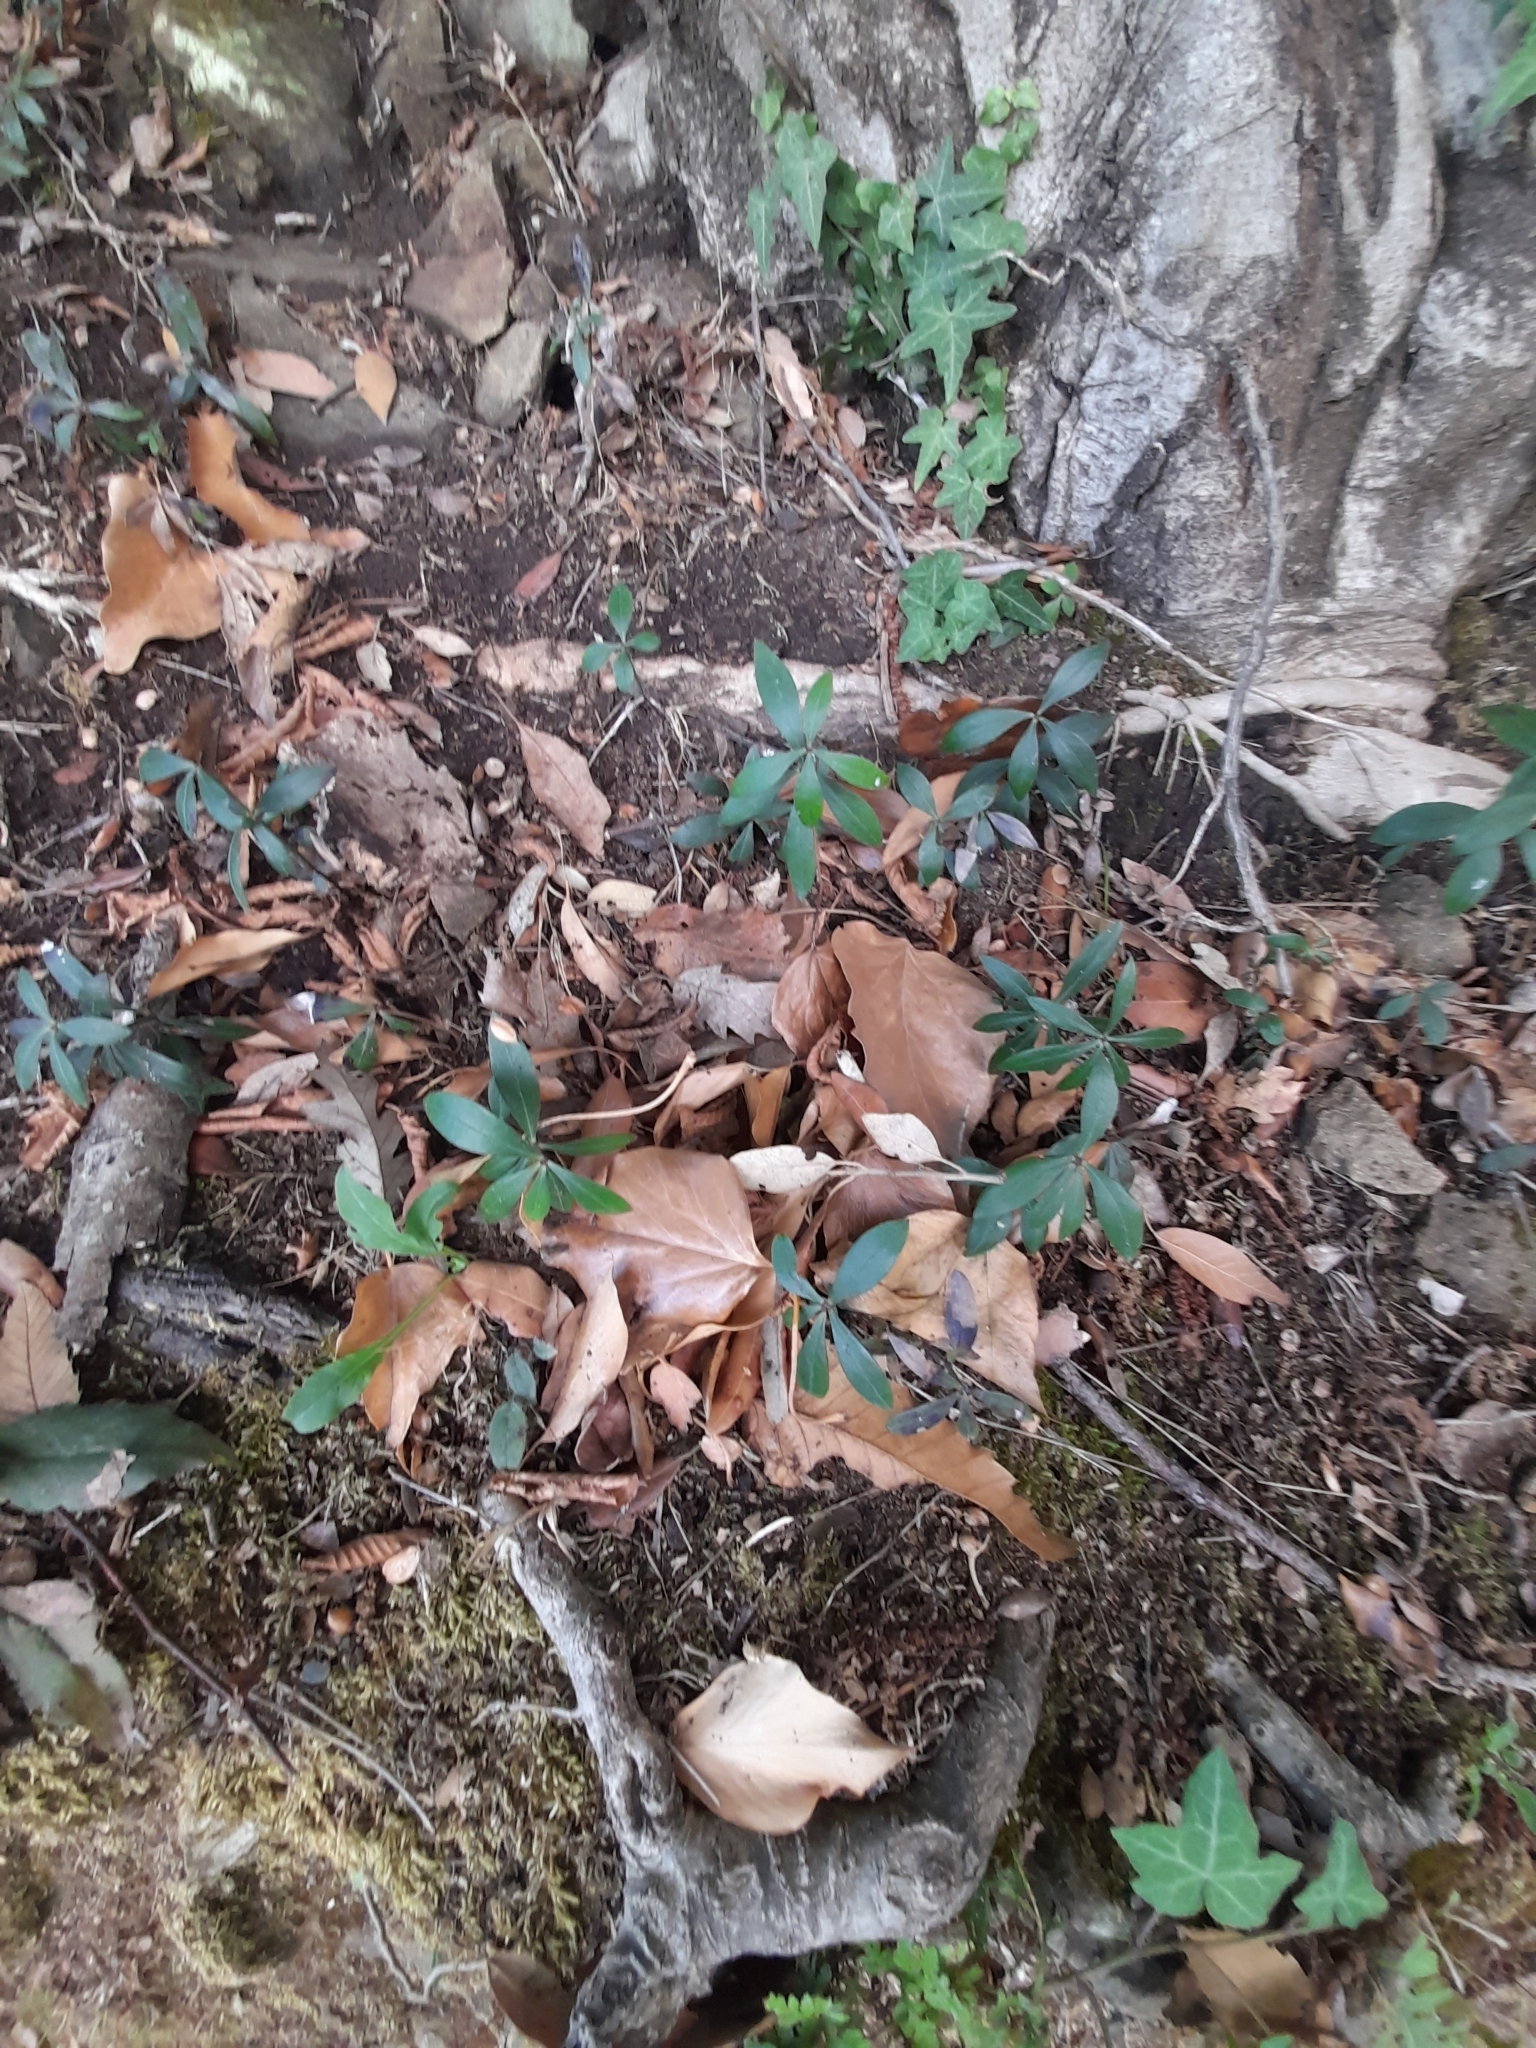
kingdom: Plantae
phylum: Tracheophyta
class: Magnoliopsida
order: Gentianales
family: Rubiaceae
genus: Rubia
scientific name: Rubia peregrina
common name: Wild madder
